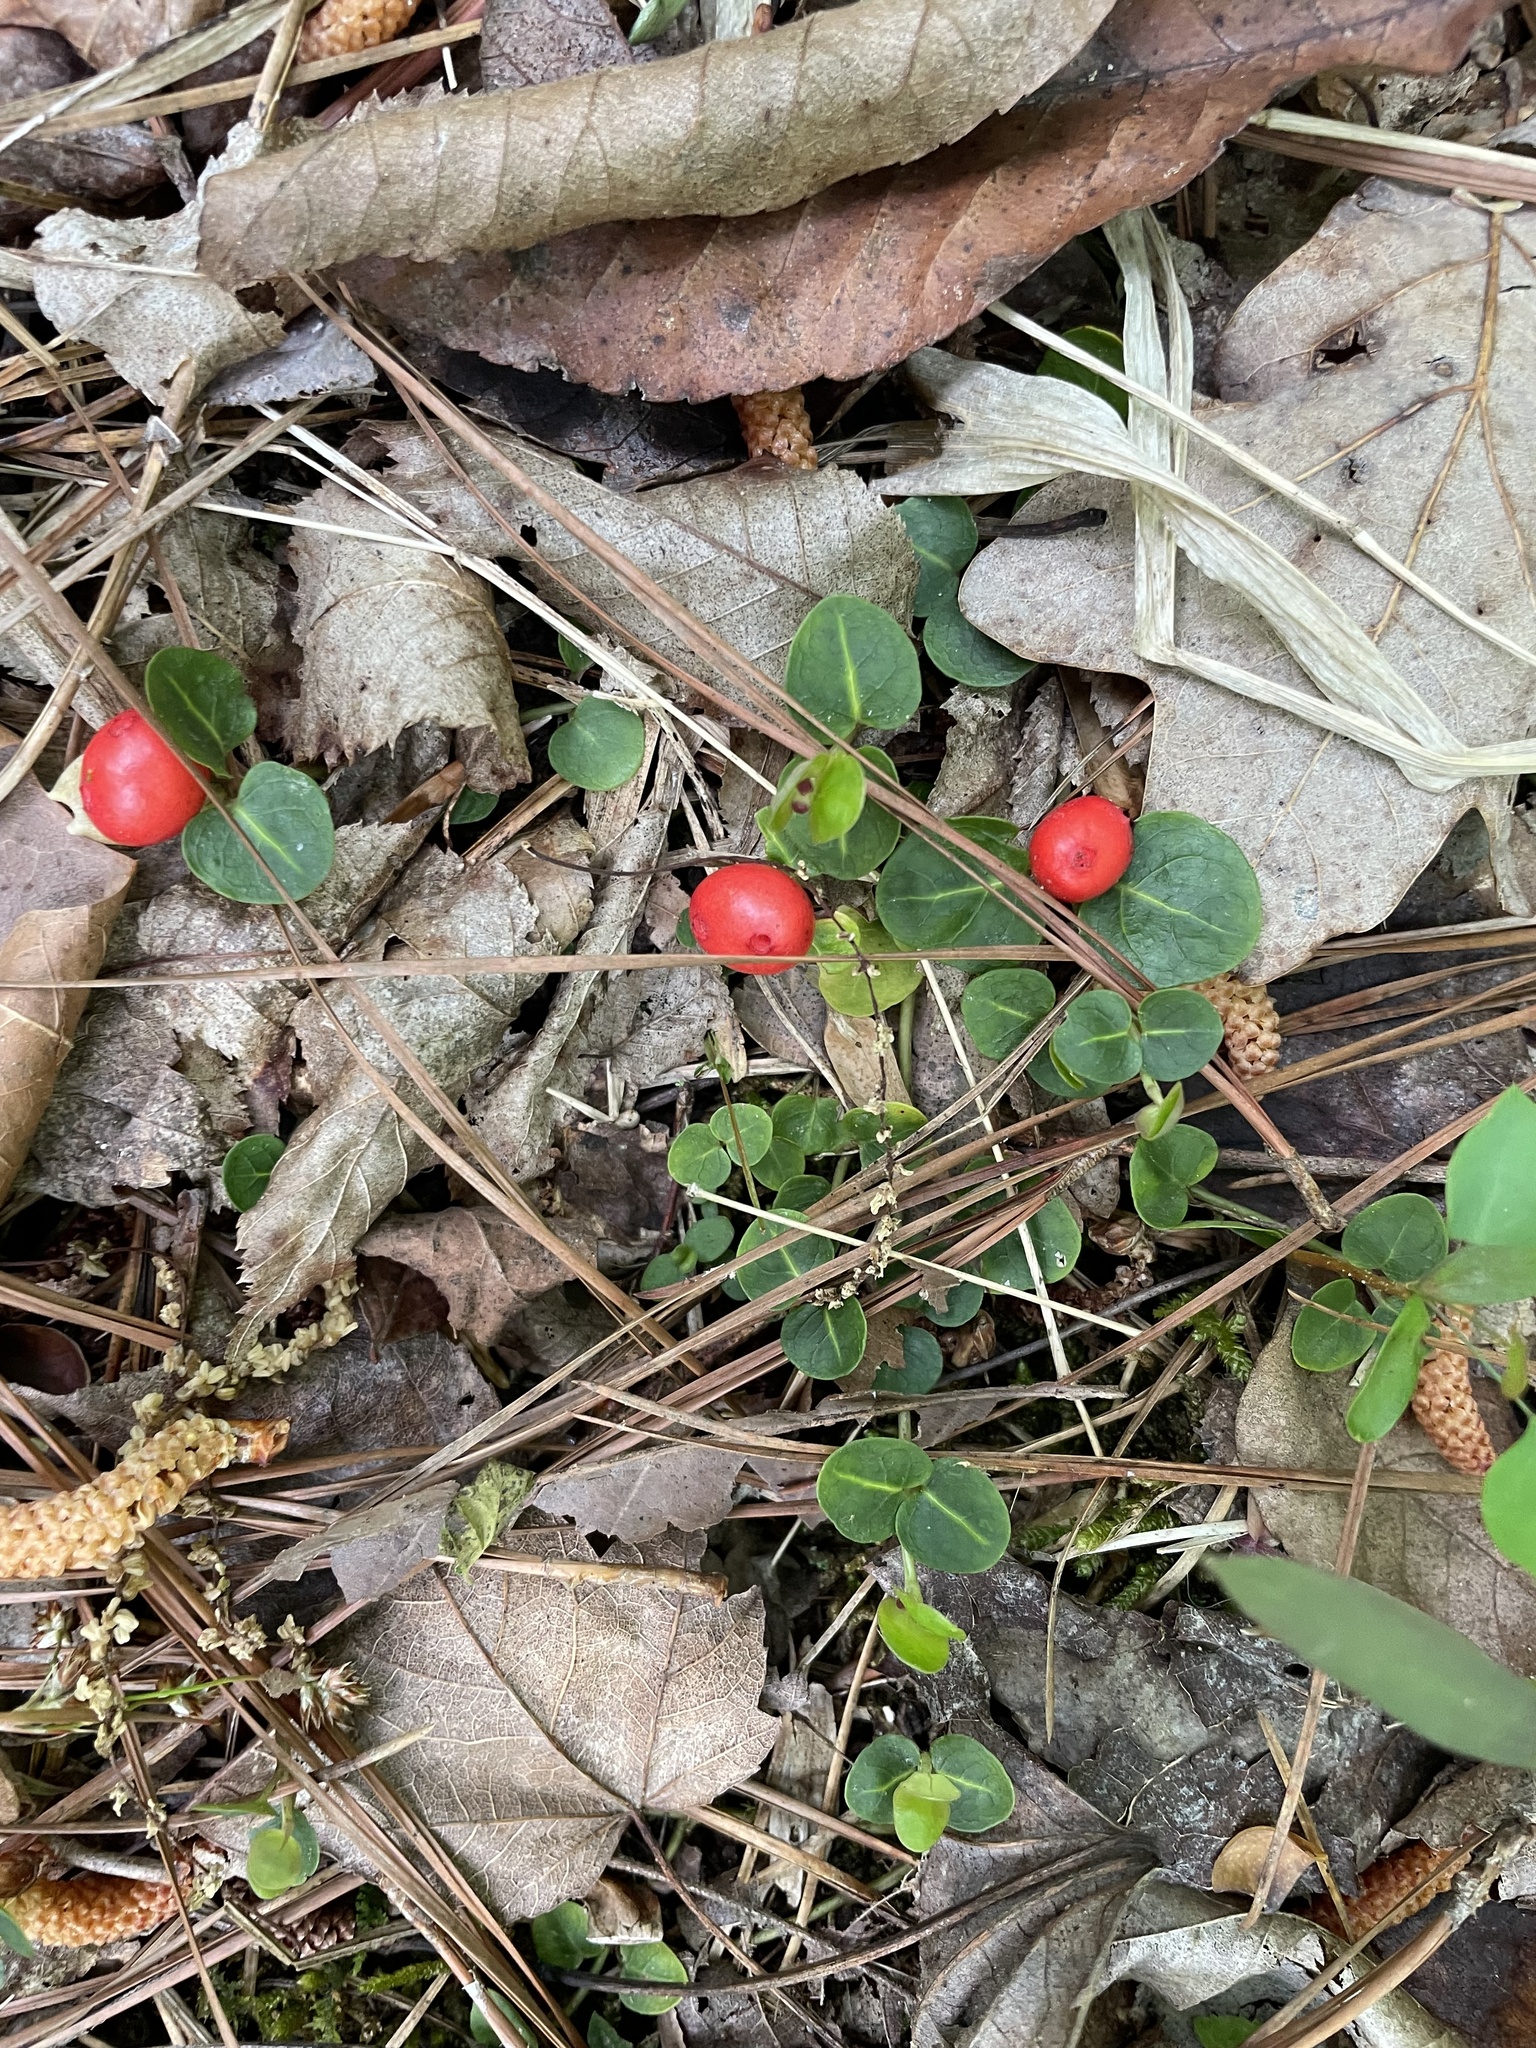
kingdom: Plantae
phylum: Tracheophyta
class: Magnoliopsida
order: Gentianales
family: Rubiaceae
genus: Mitchella
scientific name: Mitchella repens
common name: Partridge-berry
